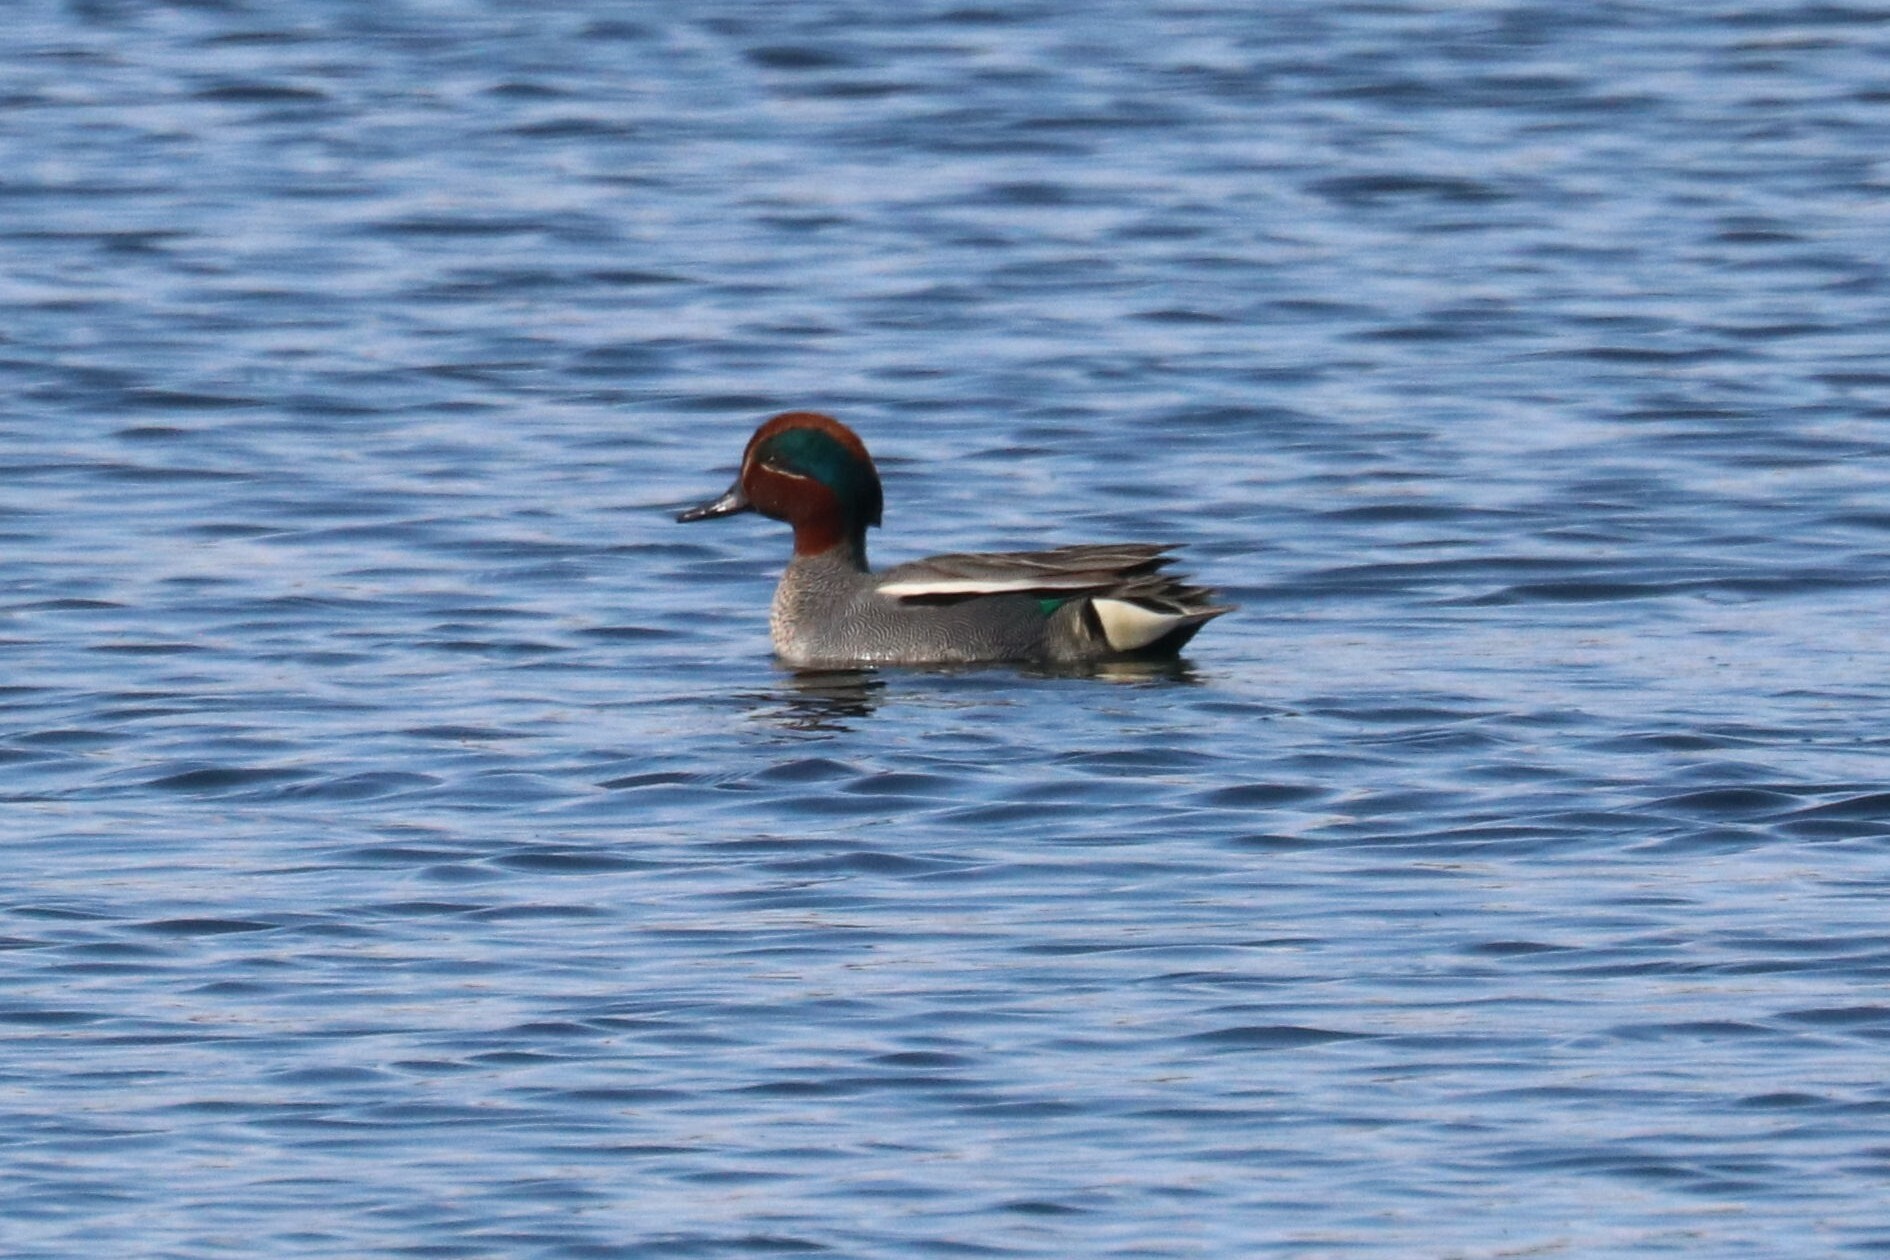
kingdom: Animalia
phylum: Chordata
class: Aves
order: Anseriformes
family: Anatidae
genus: Anas
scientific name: Anas crecca
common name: Eurasian teal
